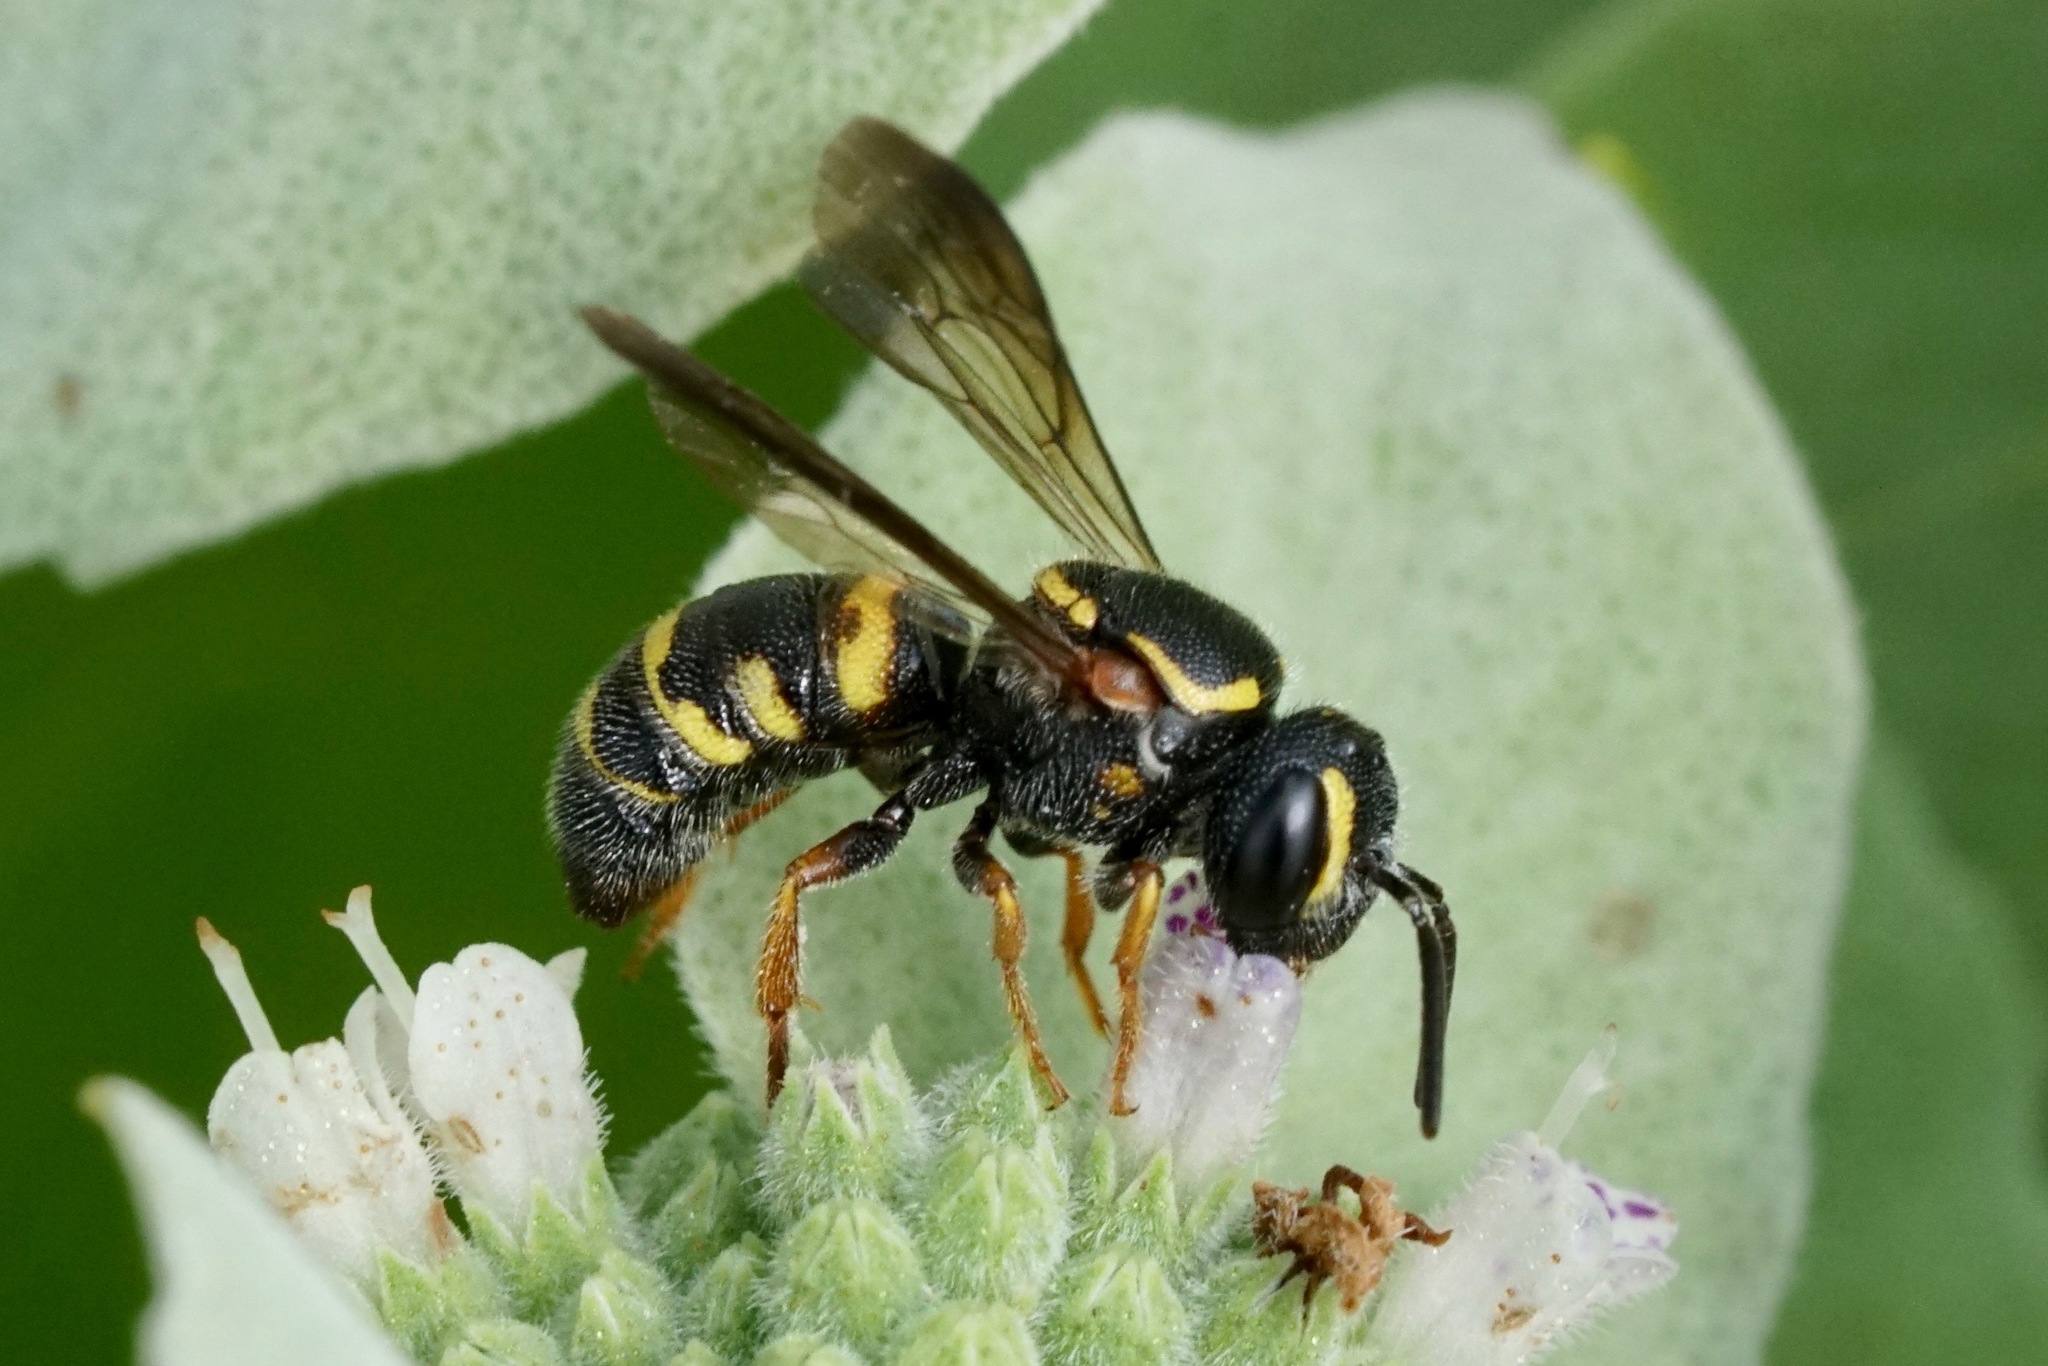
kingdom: Animalia
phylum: Arthropoda
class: Insecta
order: Hymenoptera
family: Megachilidae
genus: Stelis
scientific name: Stelis louisae
